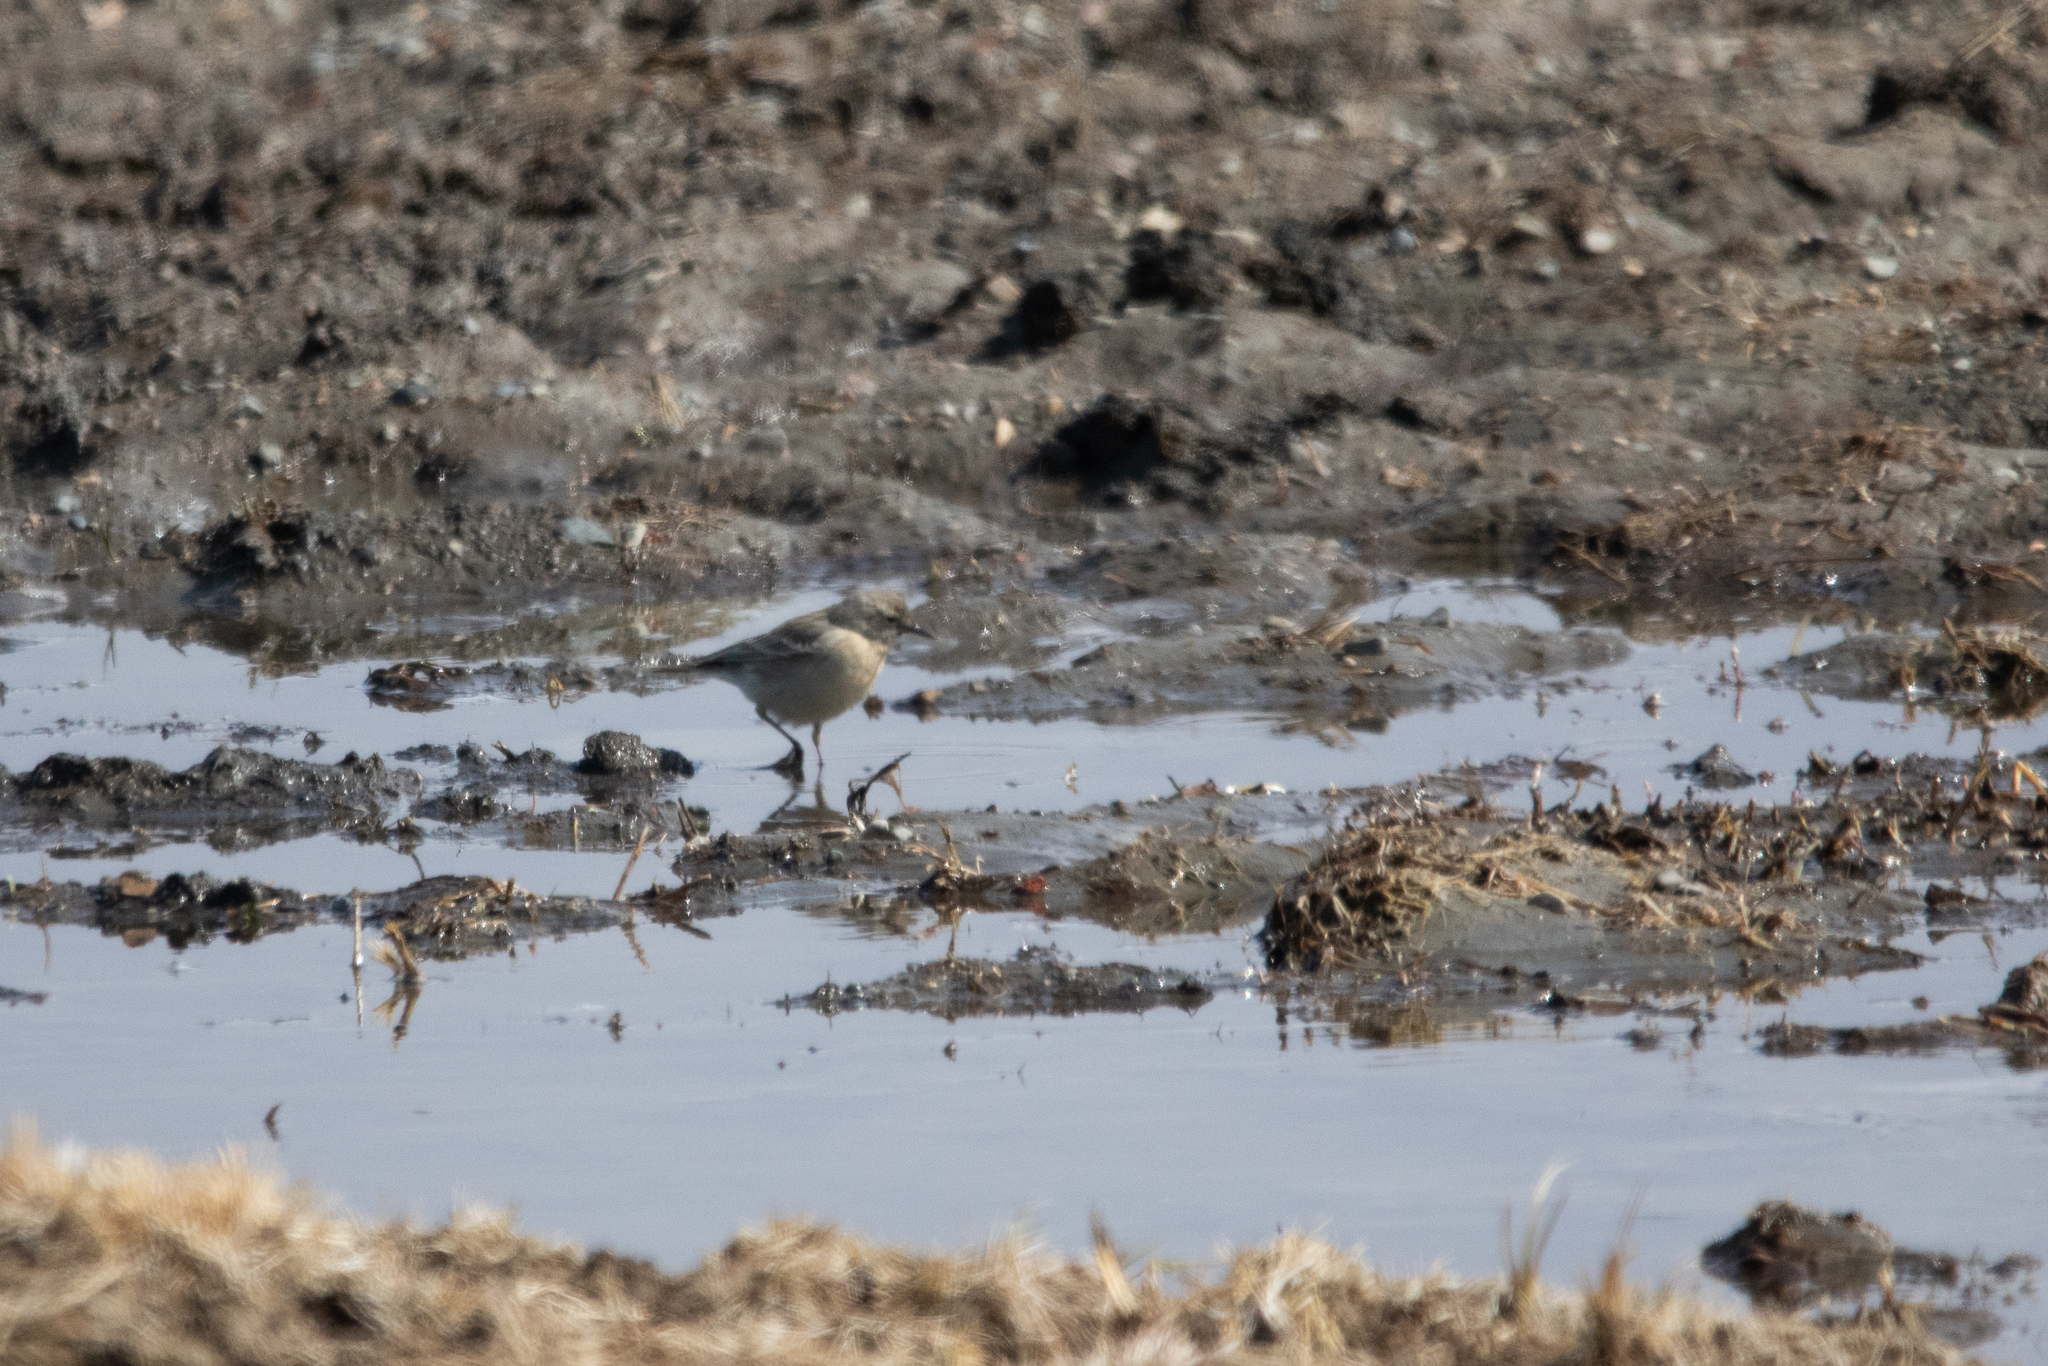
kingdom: Animalia
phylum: Chordata
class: Aves
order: Passeriformes
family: Motacillidae
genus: Anthus
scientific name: Anthus spinoletta
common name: Water pipit
